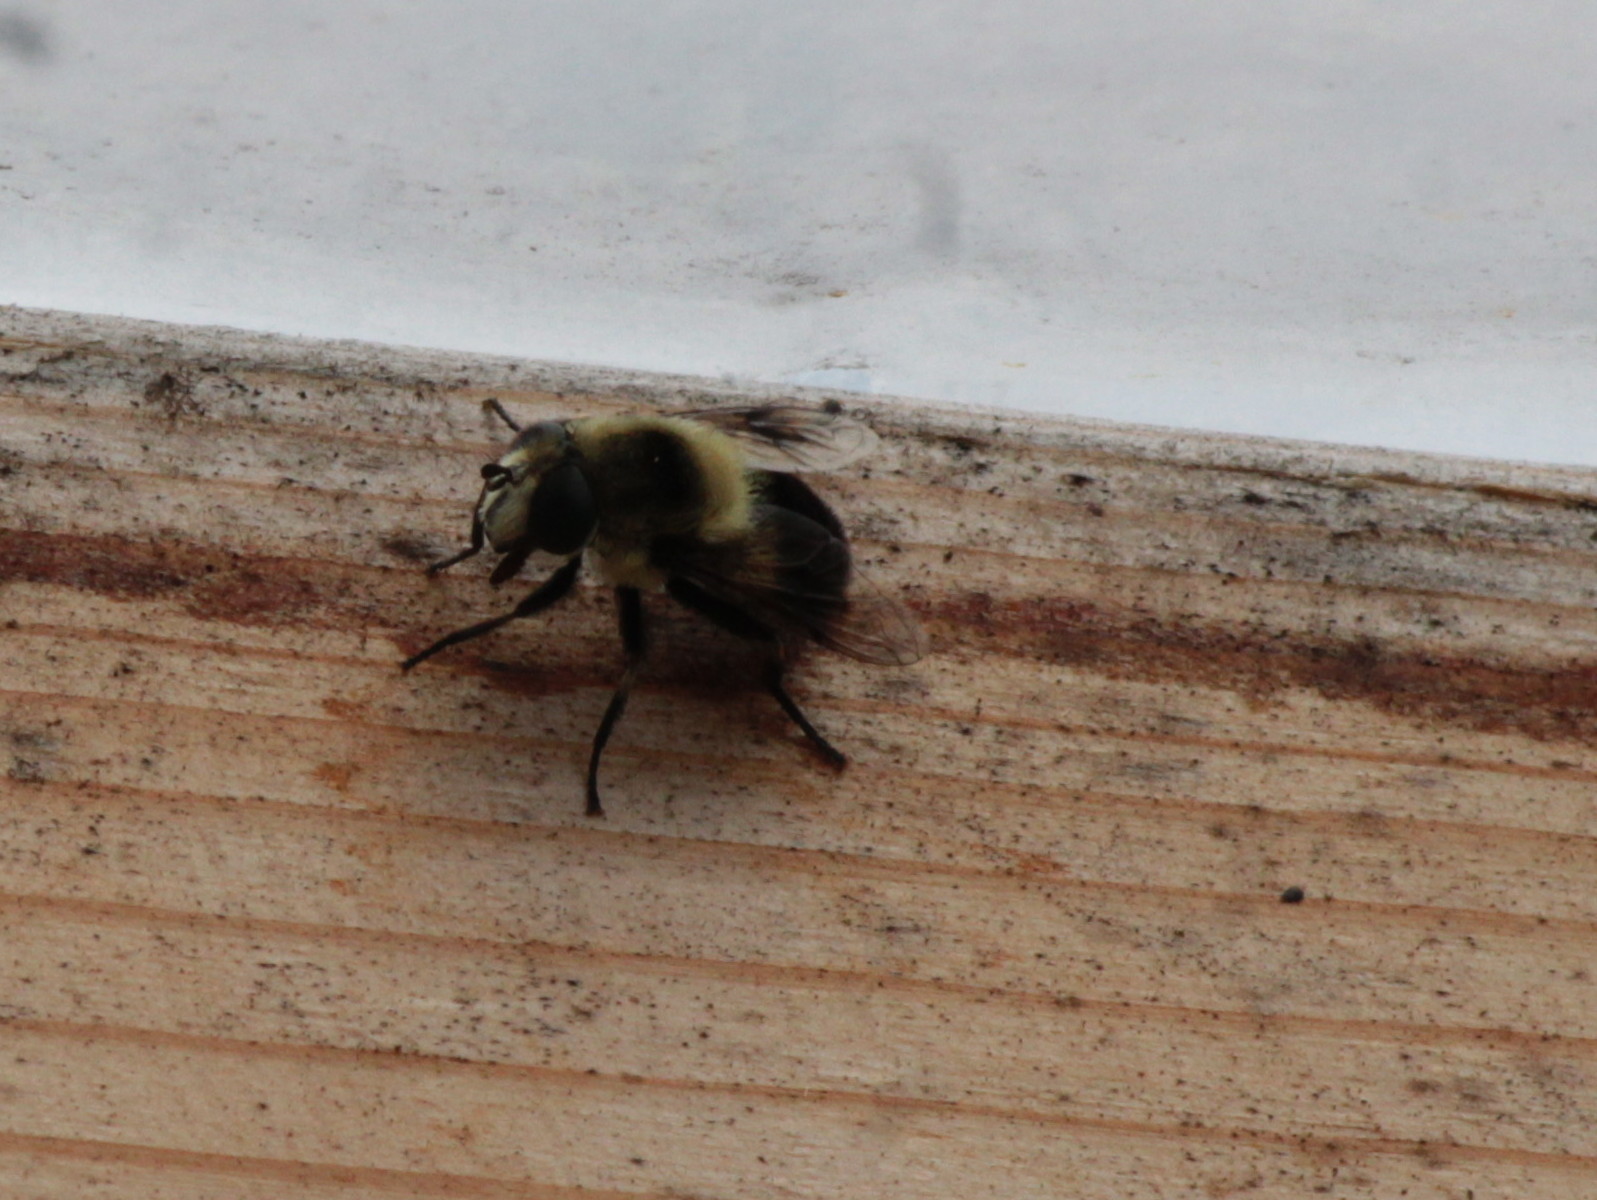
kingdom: Animalia
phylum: Arthropoda
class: Insecta
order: Diptera
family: Syrphidae
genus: Eristalis
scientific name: Eristalis anthophorina
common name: Orange-spotted drone fly
